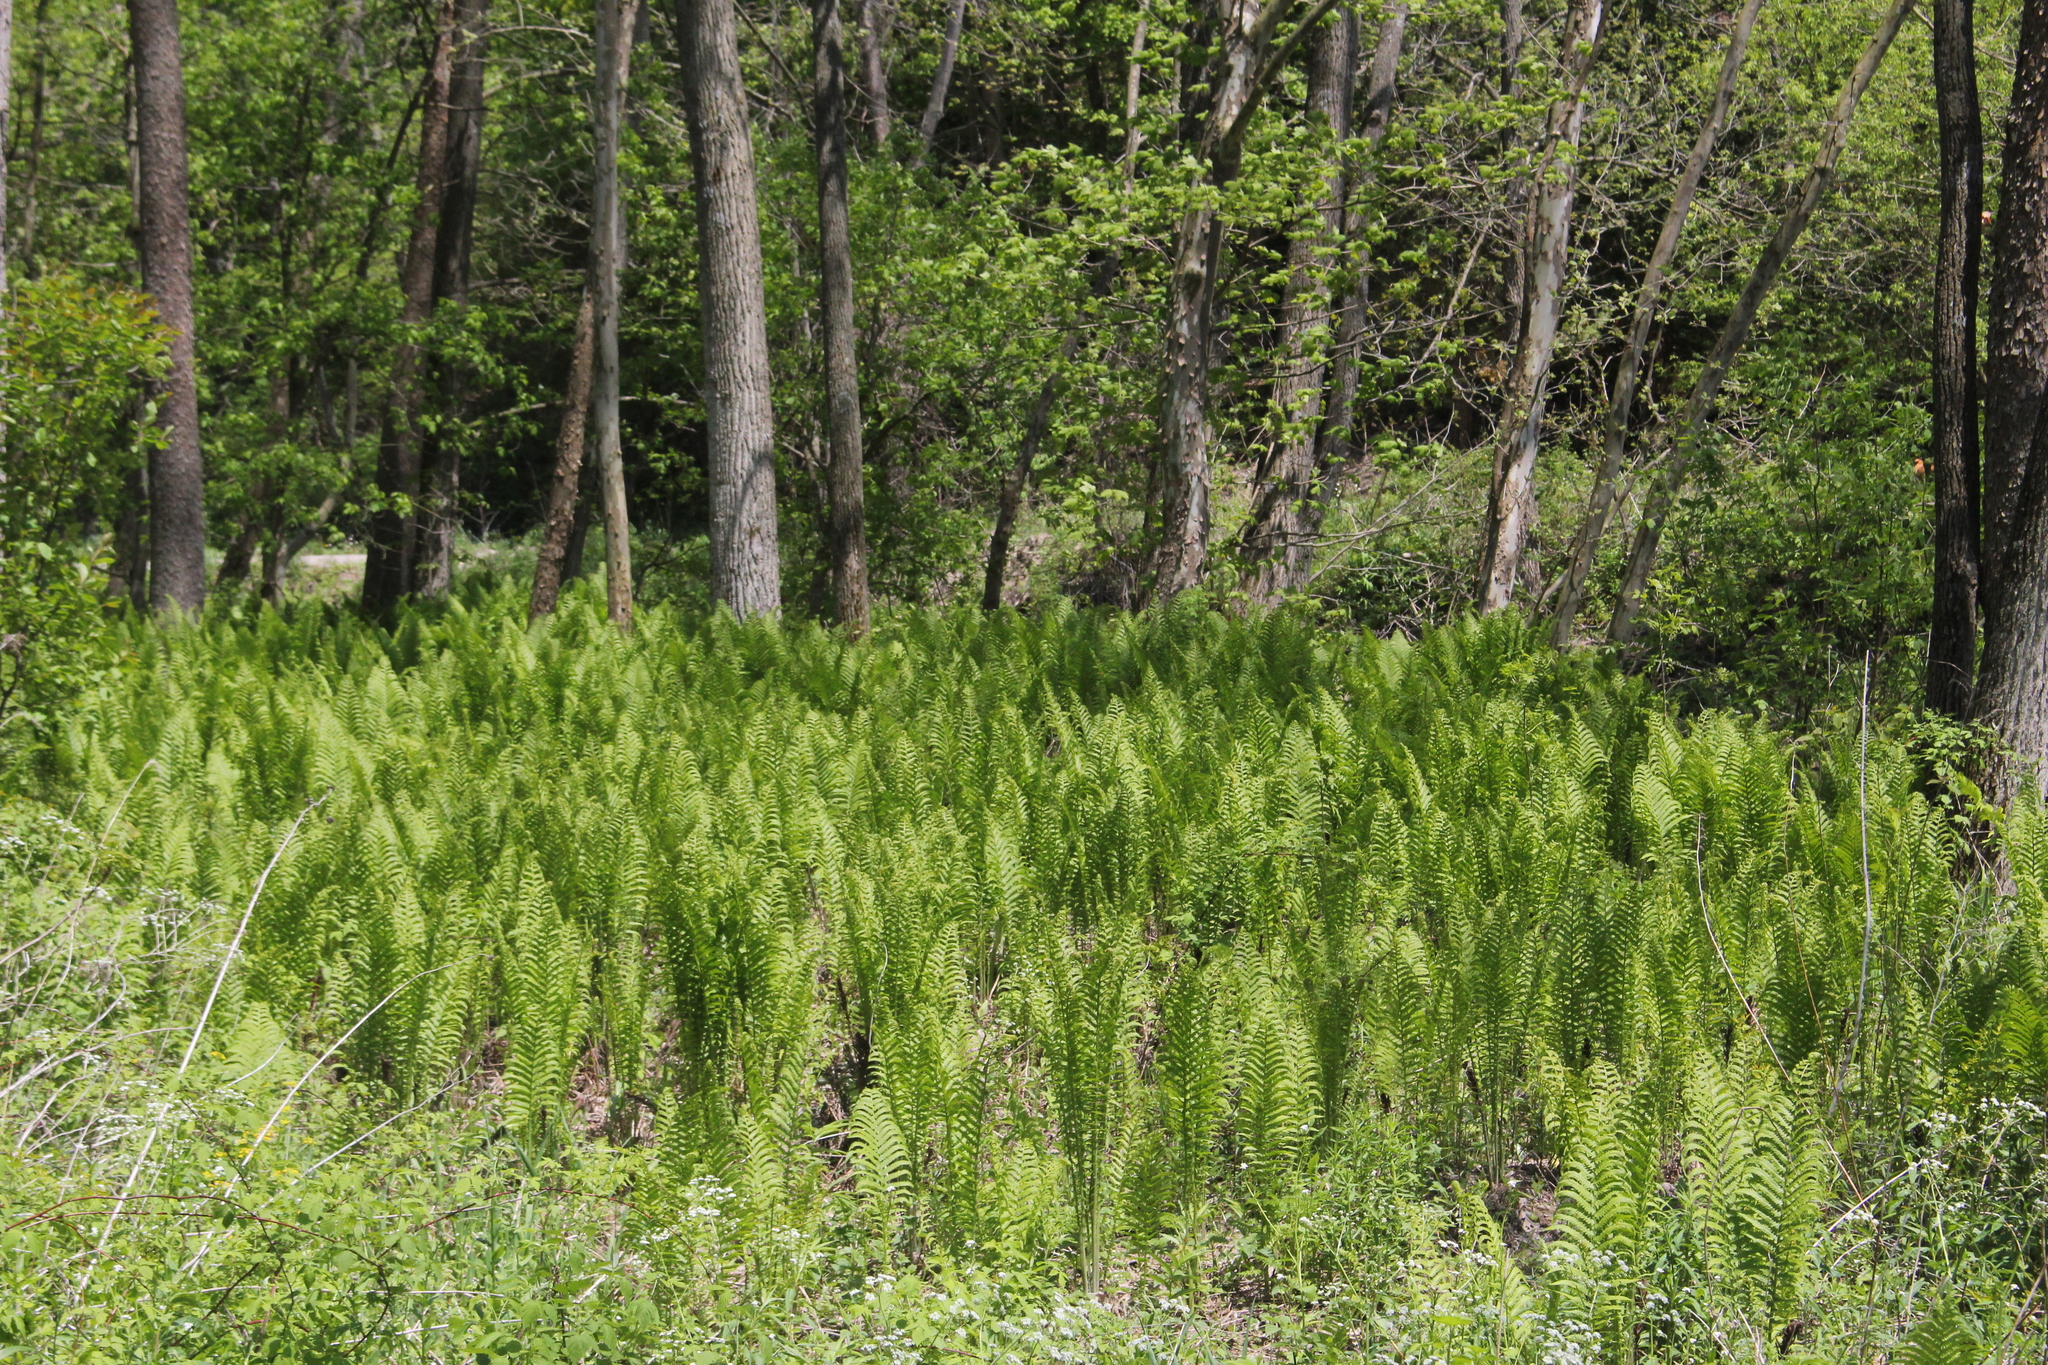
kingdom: Plantae
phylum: Tracheophyta
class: Polypodiopsida
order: Polypodiales
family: Onocleaceae
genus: Matteuccia
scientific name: Matteuccia struthiopteris
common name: Ostrich fern
